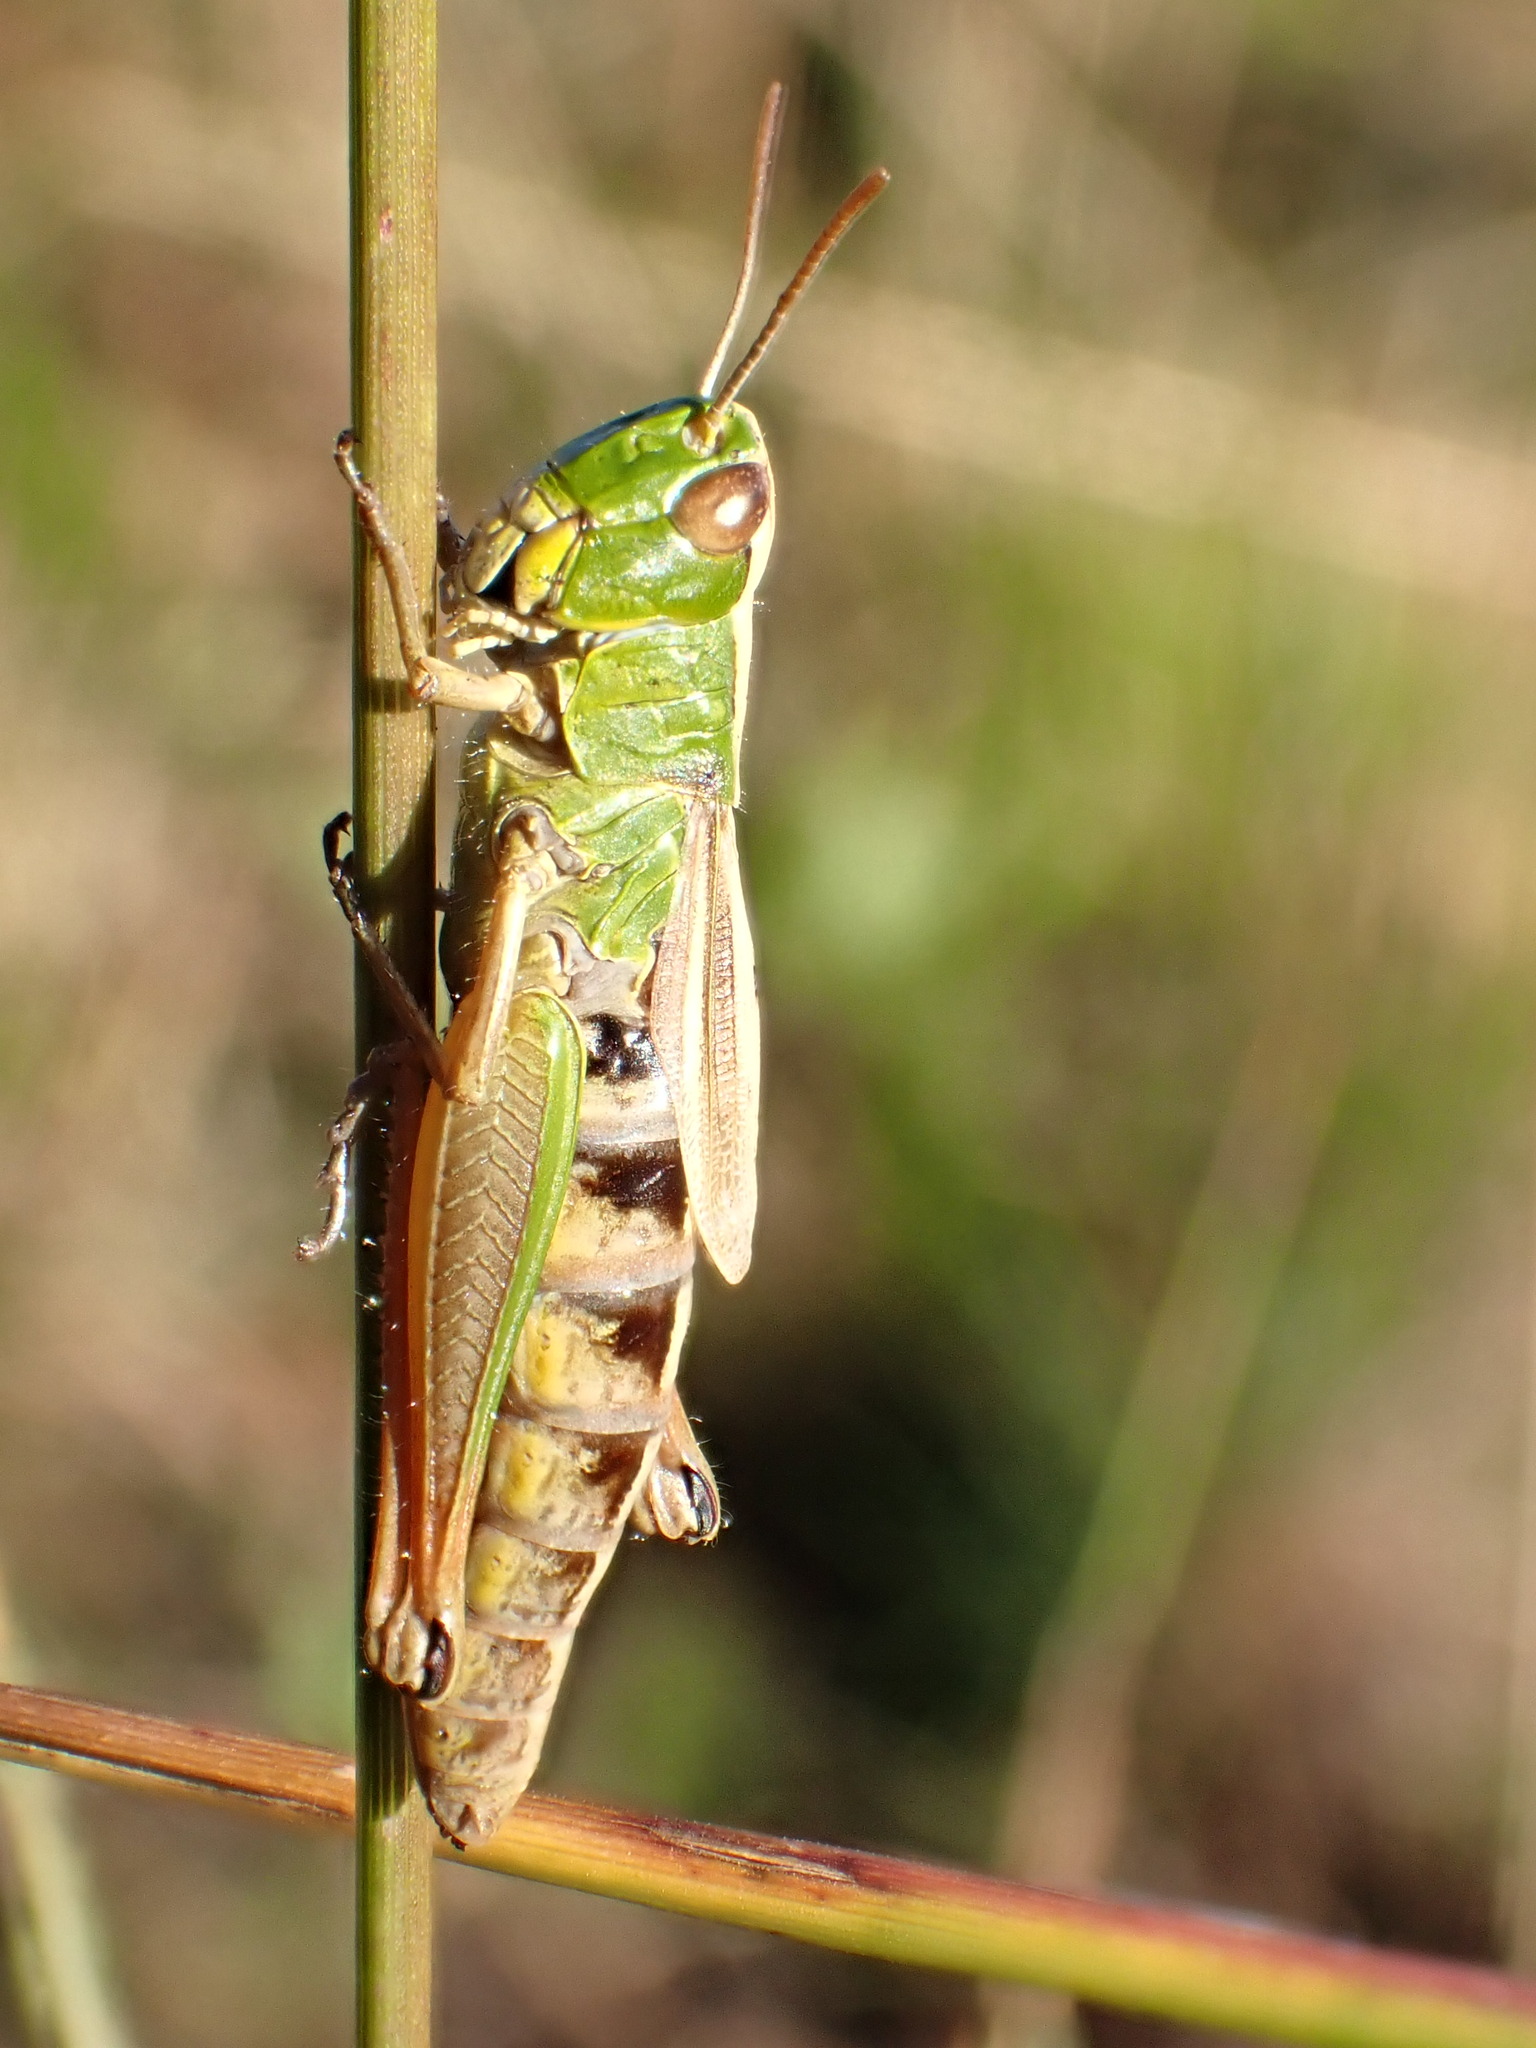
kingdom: Animalia
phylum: Arthropoda
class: Insecta
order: Orthoptera
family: Acrididae
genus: Pseudochorthippus
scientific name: Pseudochorthippus parallelus
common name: Meadow grasshopper
